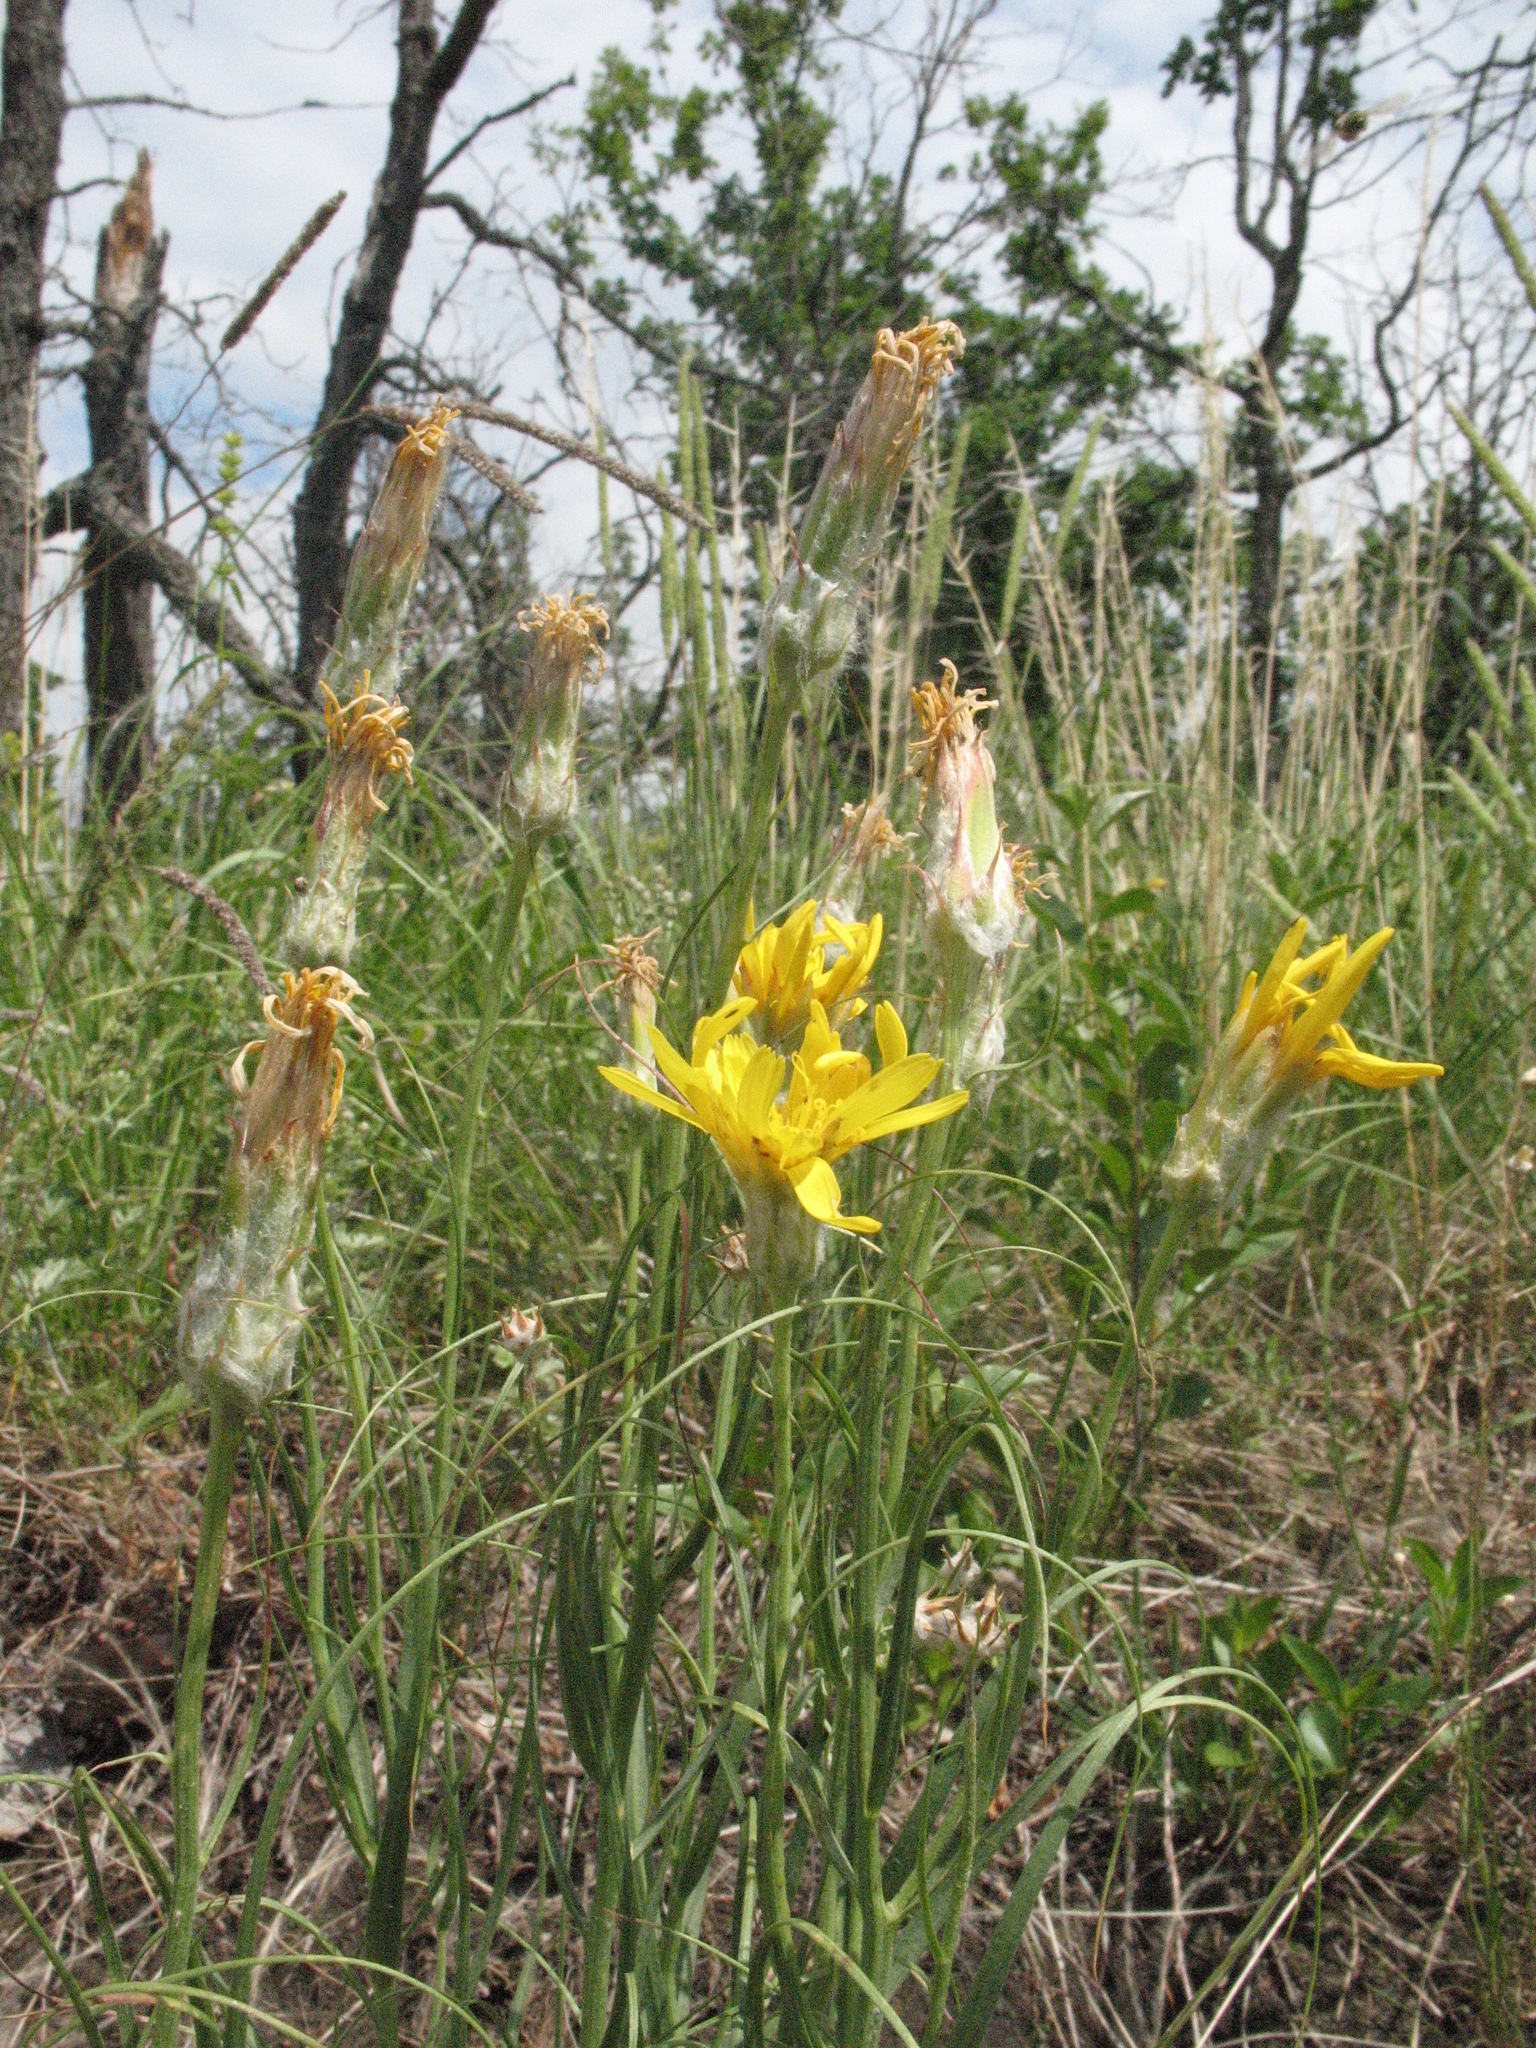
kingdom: Plantae
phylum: Tracheophyta
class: Magnoliopsida
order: Asterales
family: Asteraceae
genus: Gelasia
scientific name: Gelasia ensifolia
